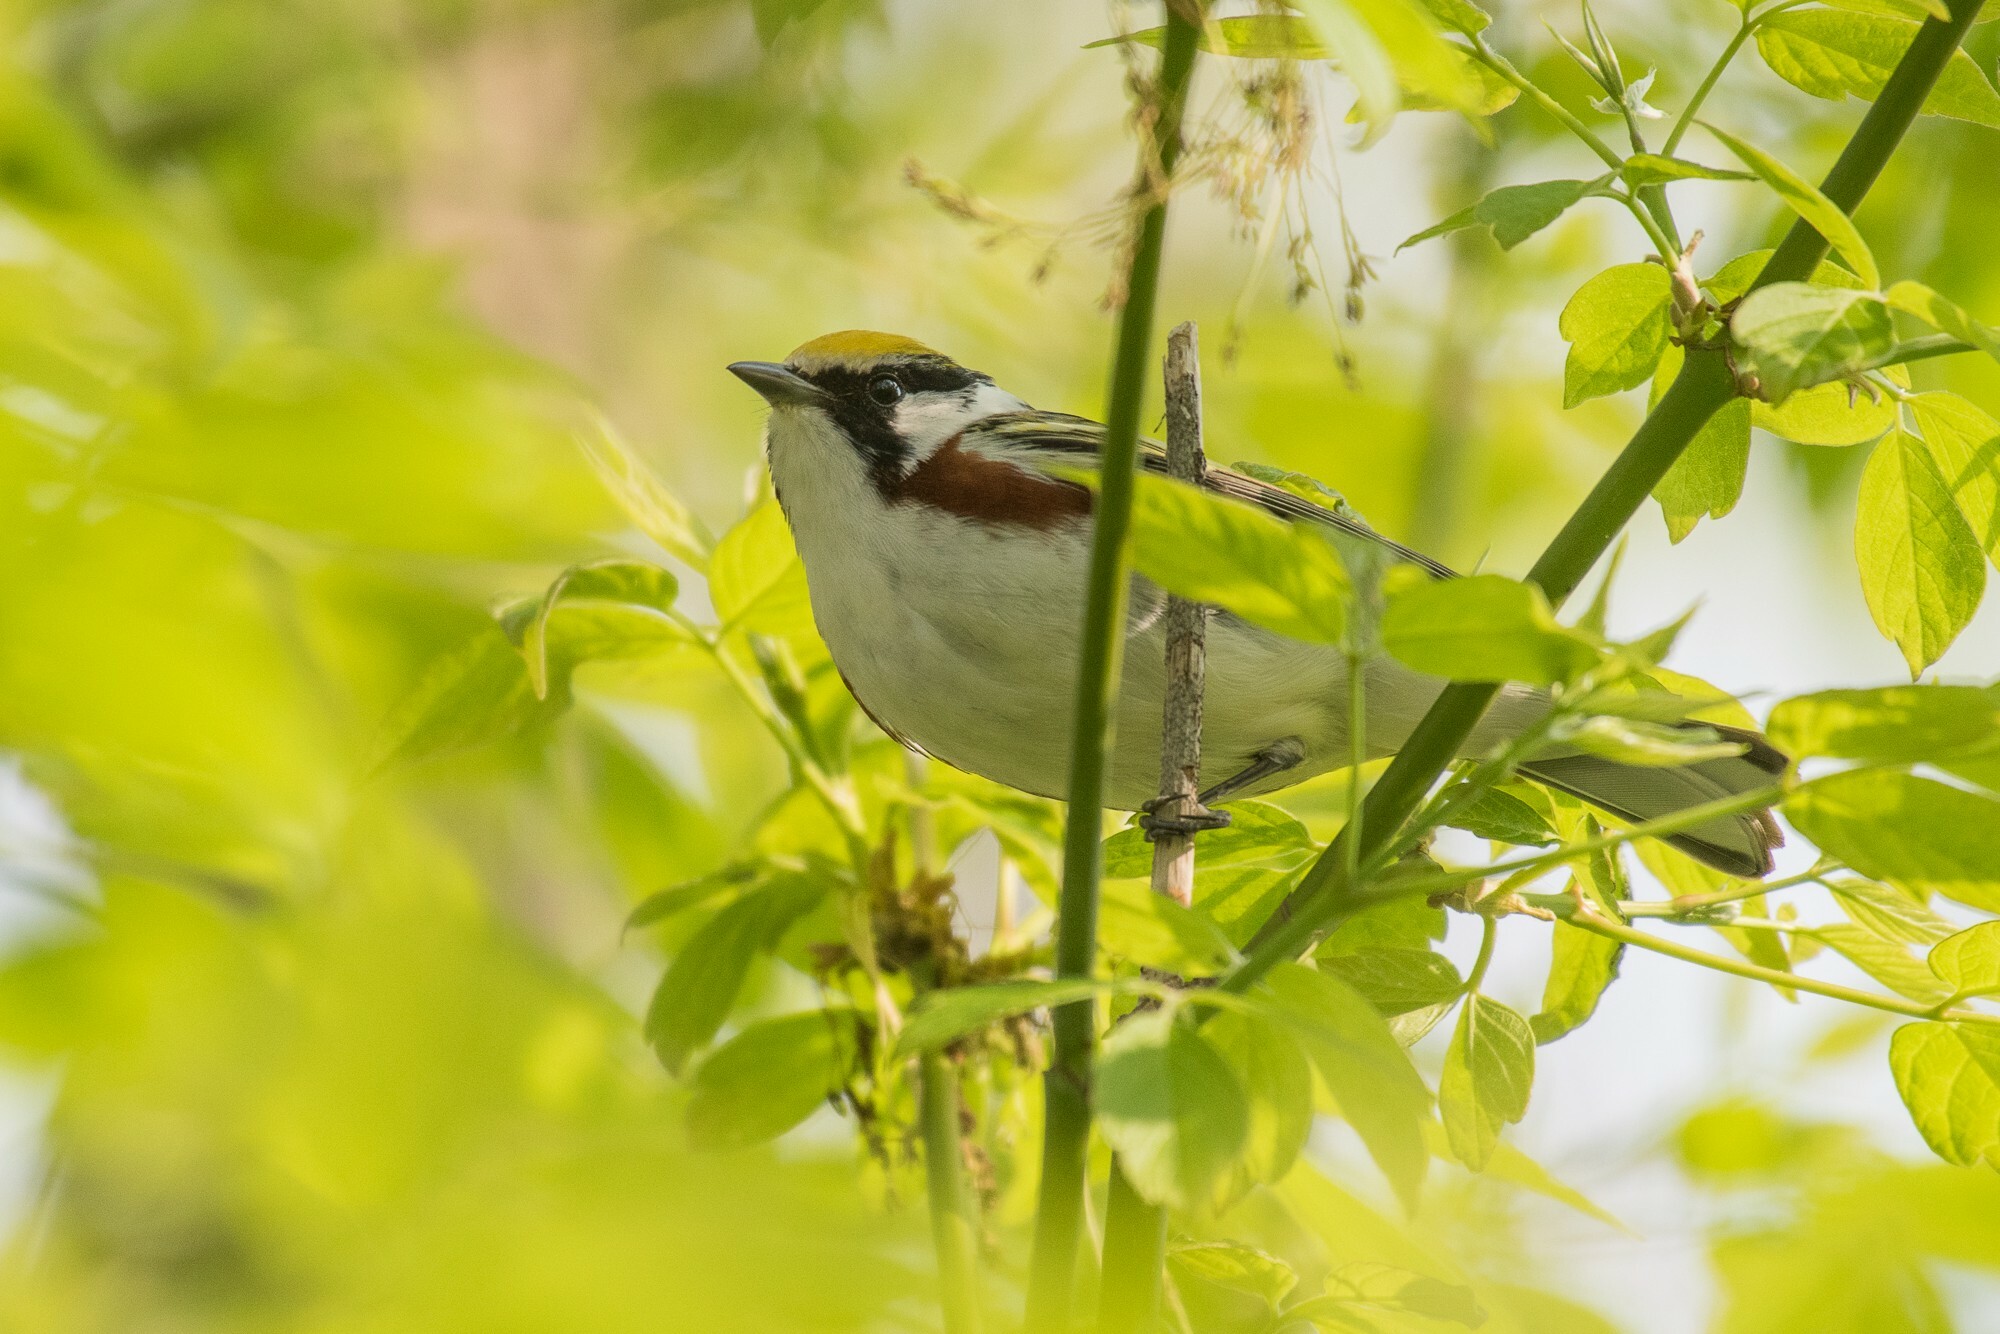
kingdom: Animalia
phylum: Chordata
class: Aves
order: Passeriformes
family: Parulidae
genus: Setophaga
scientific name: Setophaga pensylvanica
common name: Chestnut-sided warbler
